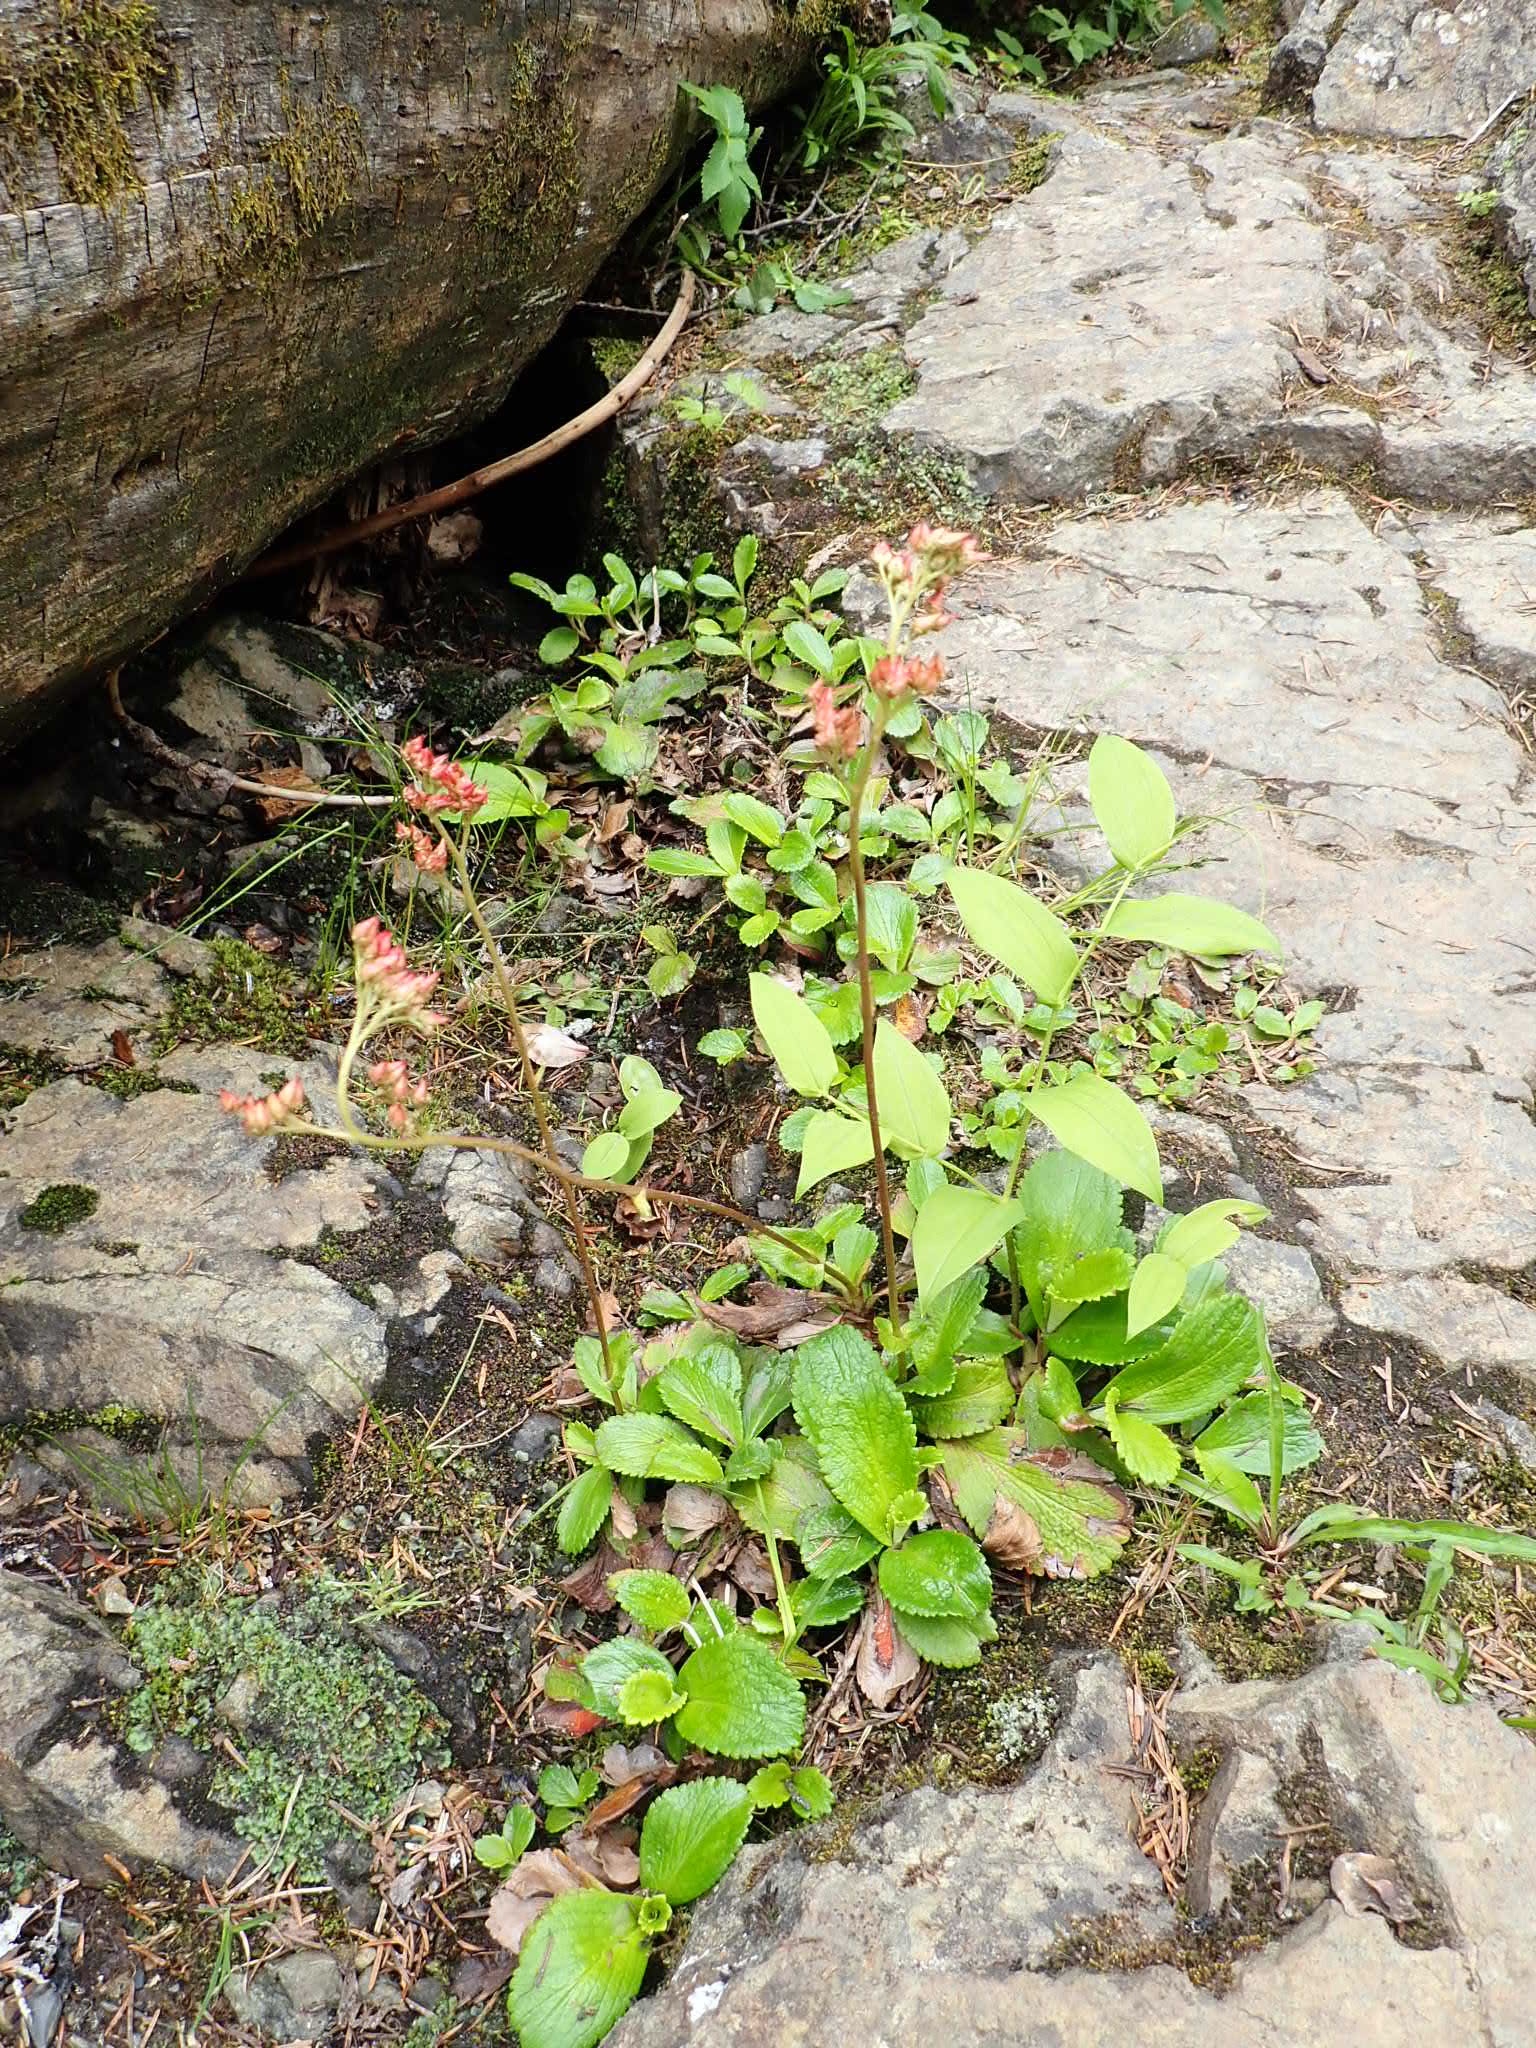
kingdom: Plantae
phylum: Tracheophyta
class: Magnoliopsida
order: Saxifragales
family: Saxifragaceae
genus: Leptarrhena
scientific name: Leptarrhena pyrolifolia
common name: Leatherleaf-saxifrage
